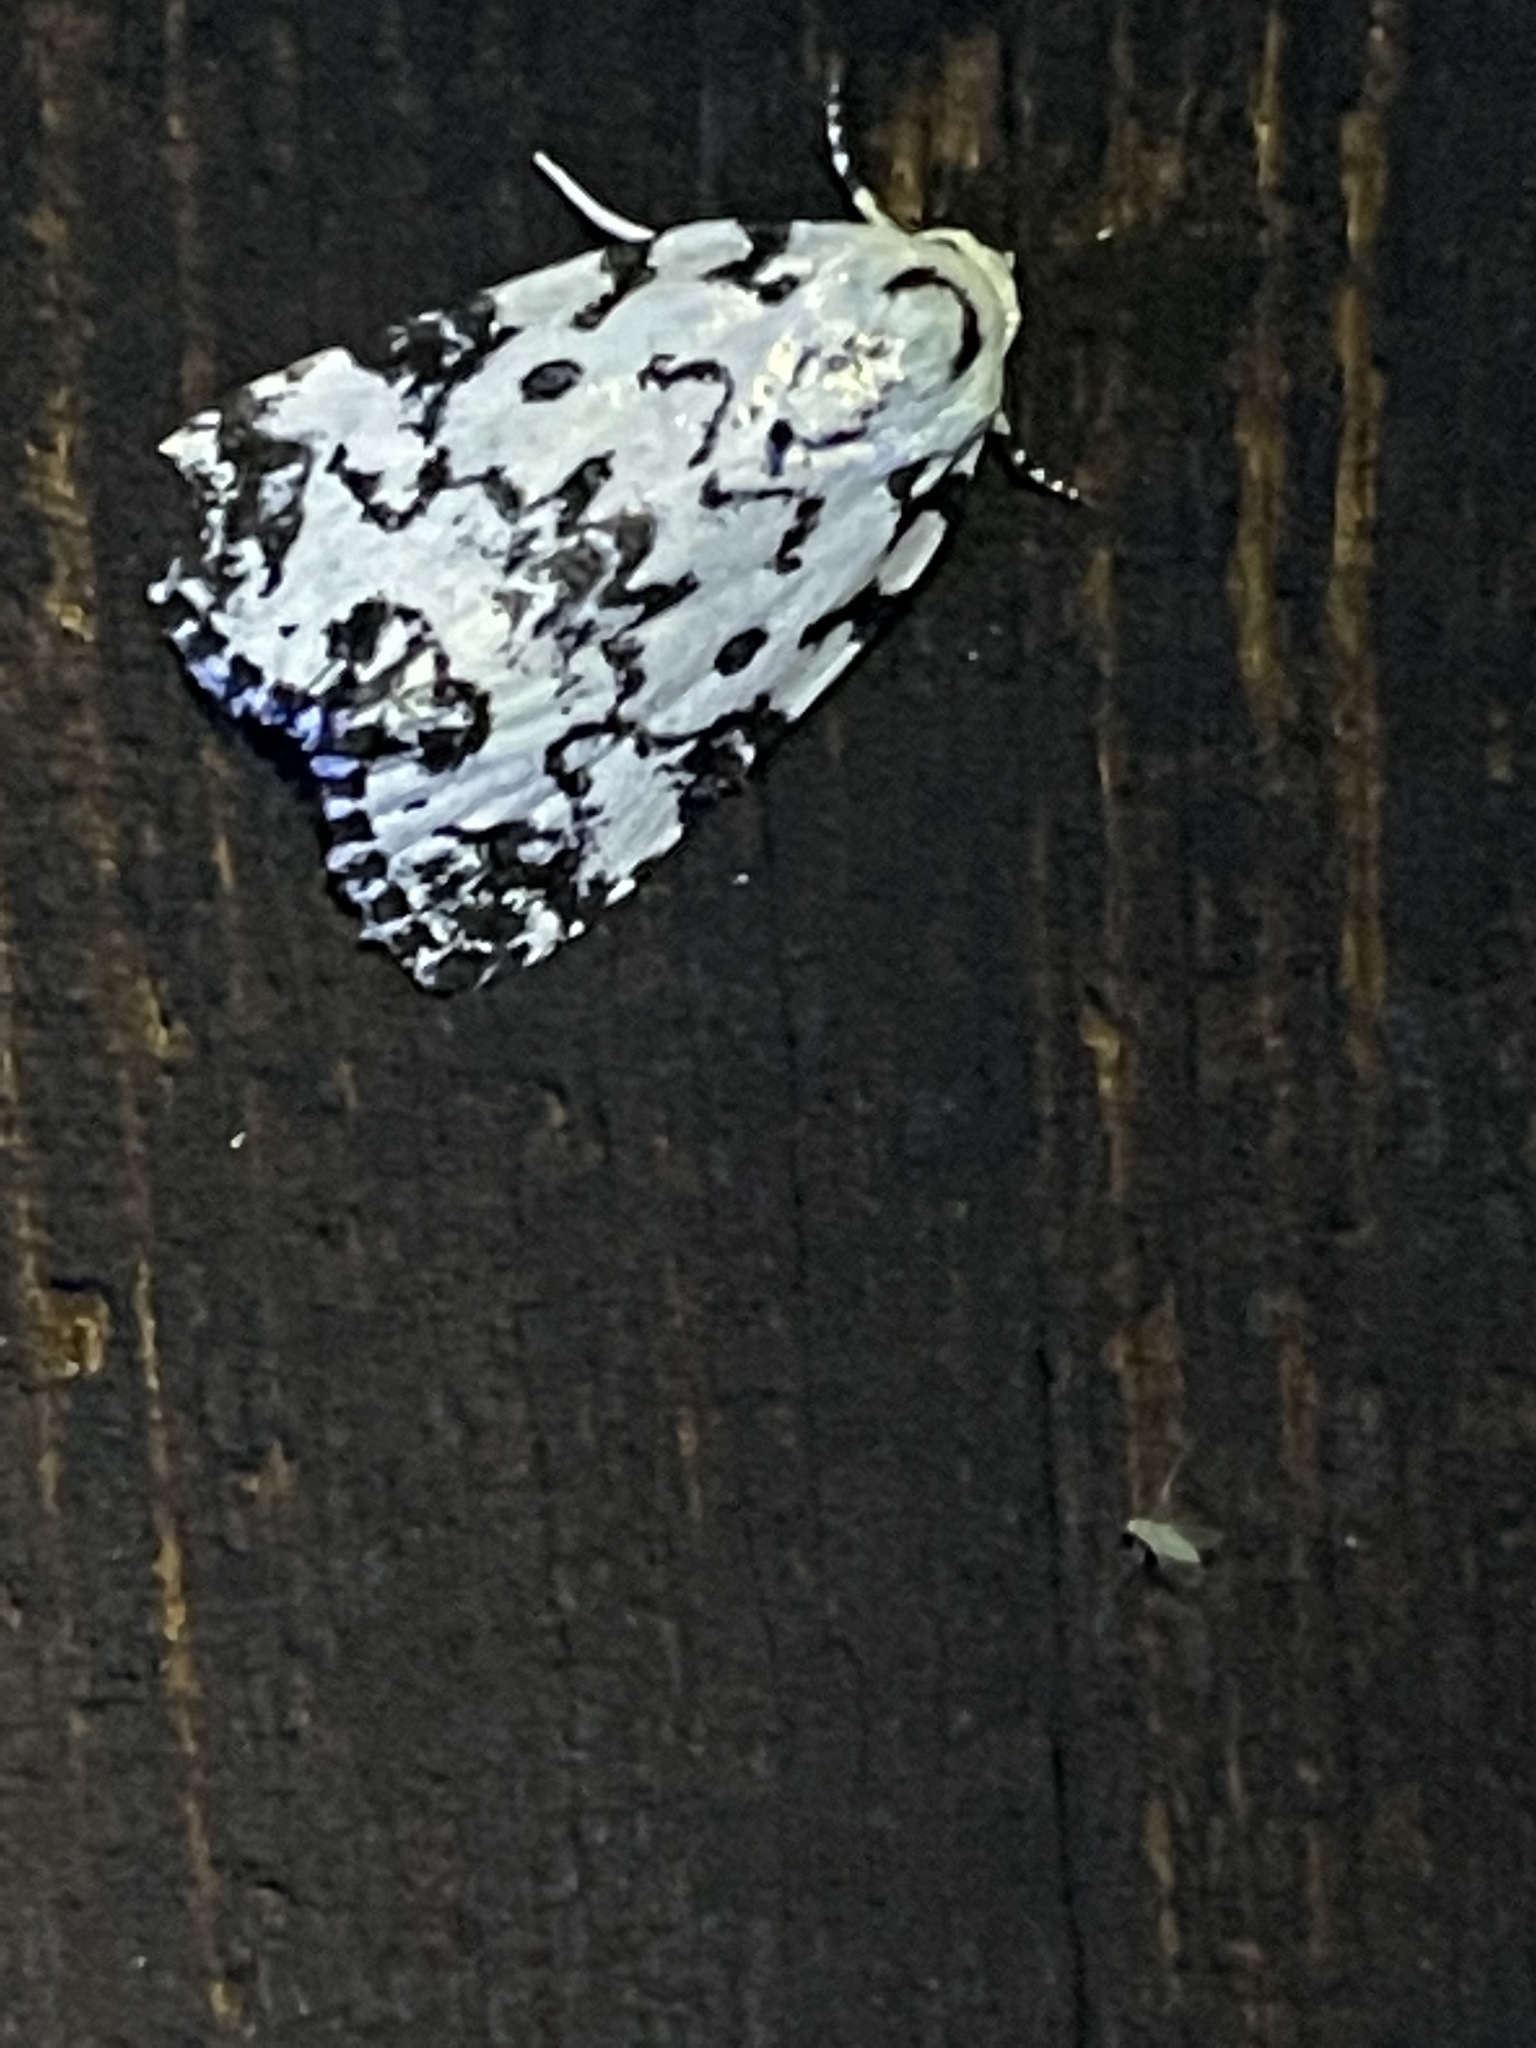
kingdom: Animalia
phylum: Arthropoda
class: Insecta
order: Lepidoptera
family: Noctuidae
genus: Polygrammate
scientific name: Polygrammate hebraeicum
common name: Hebrew moth
